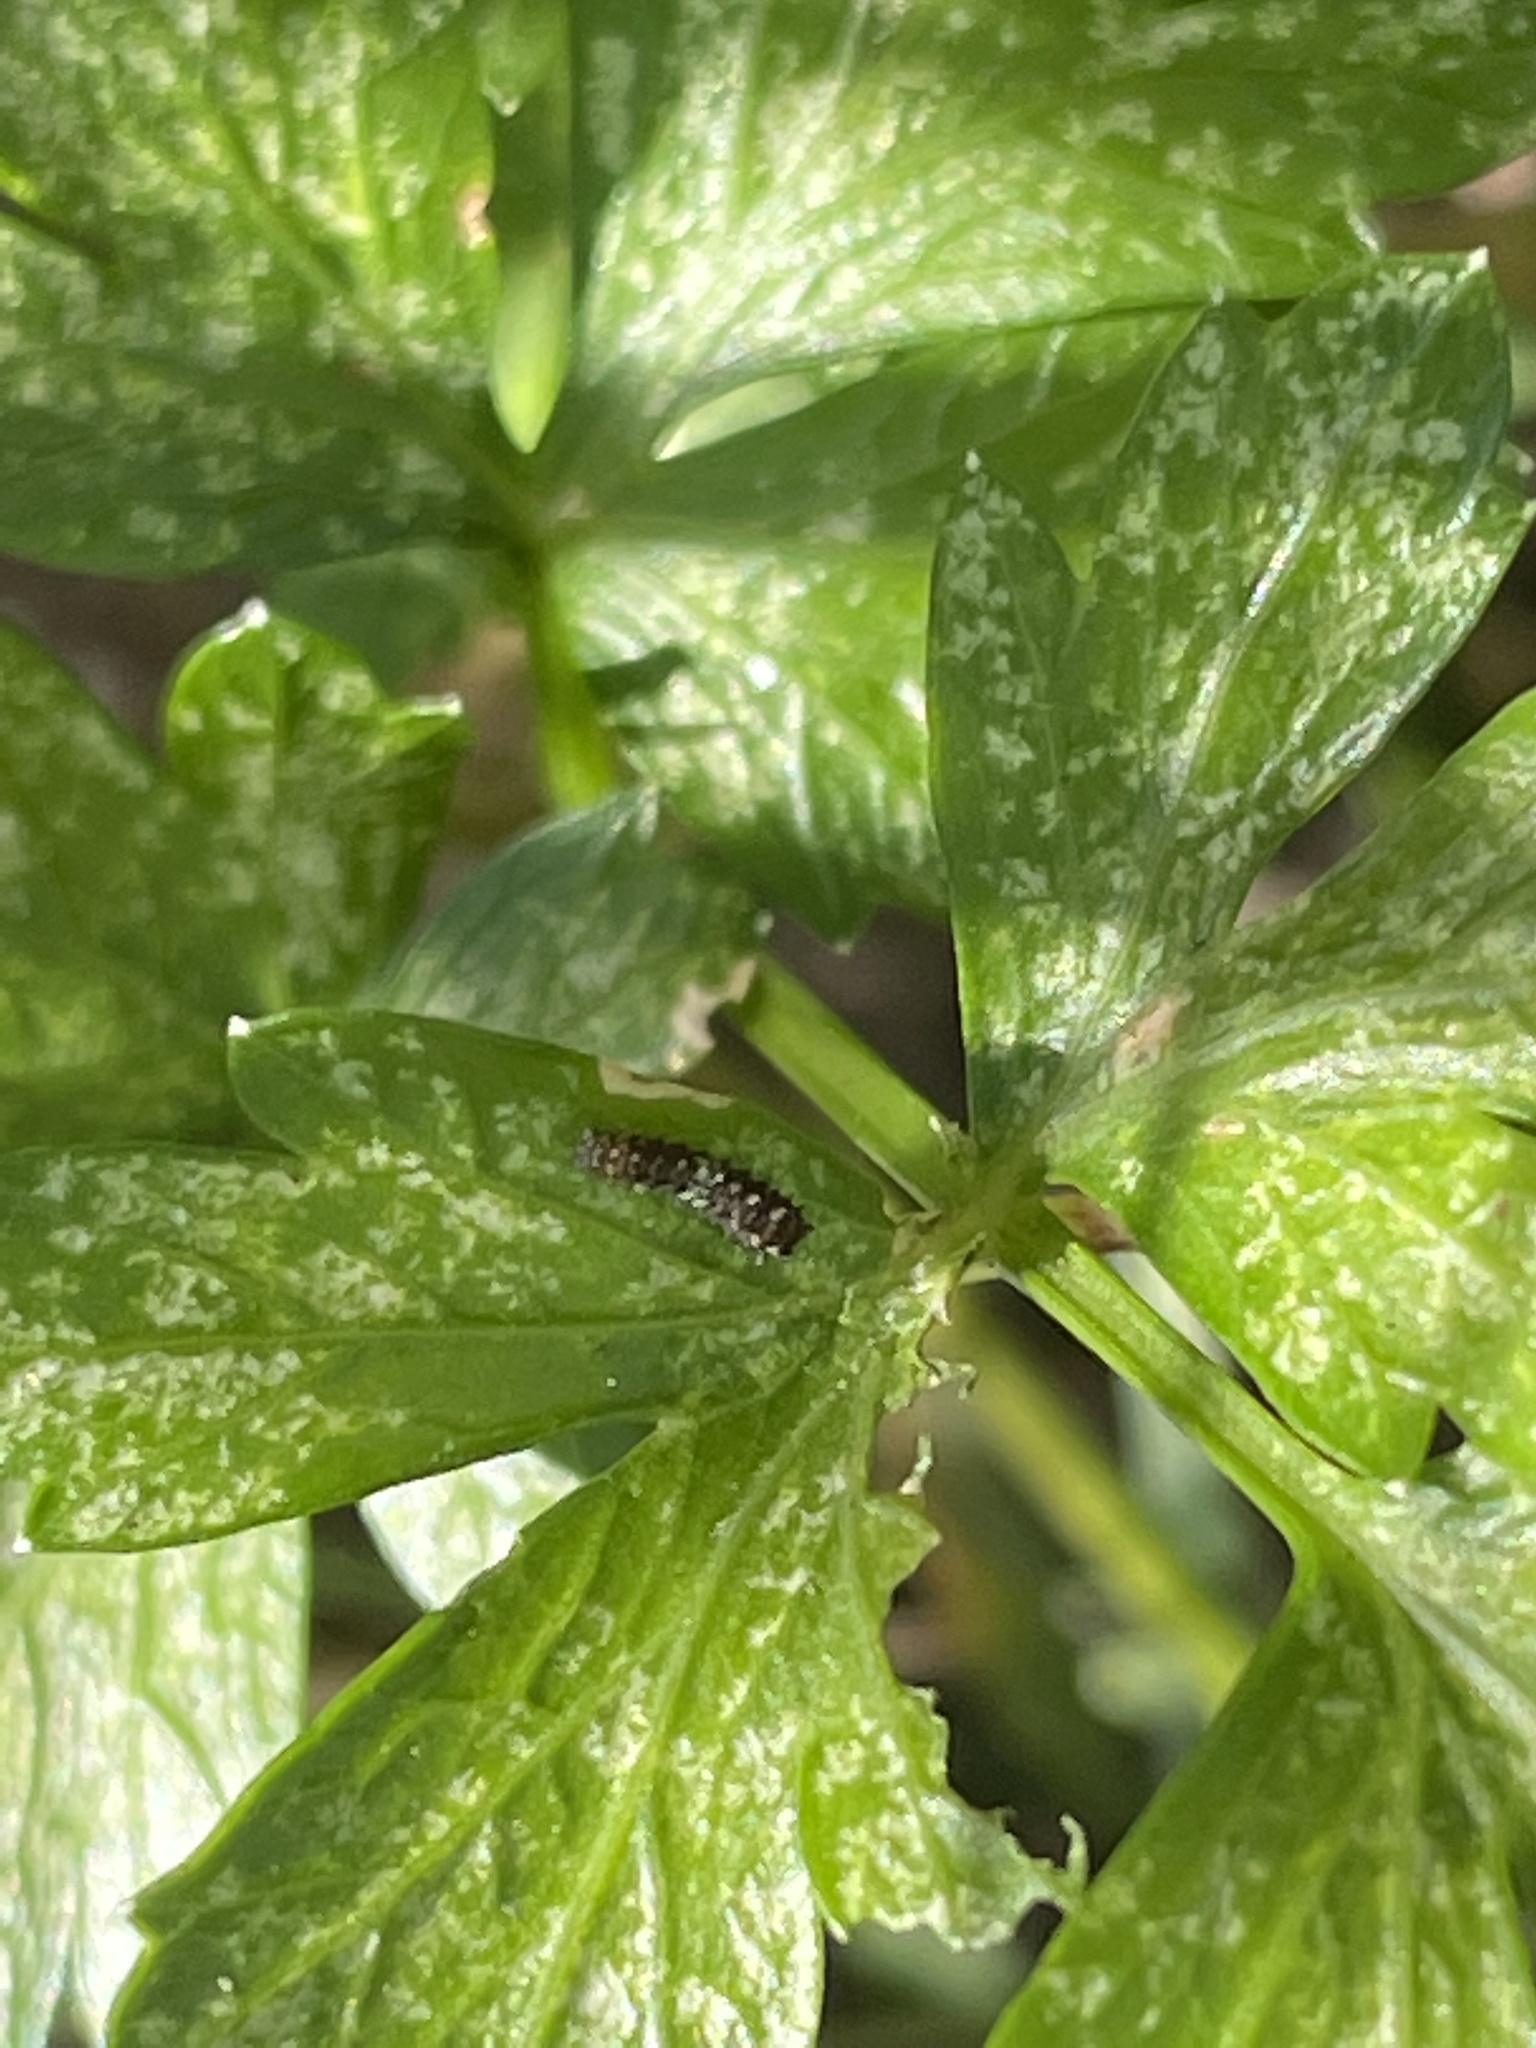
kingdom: Animalia
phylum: Arthropoda
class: Insecta
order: Lepidoptera
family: Papilionidae
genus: Papilio
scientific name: Papilio polyxenes
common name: Black swallowtail
